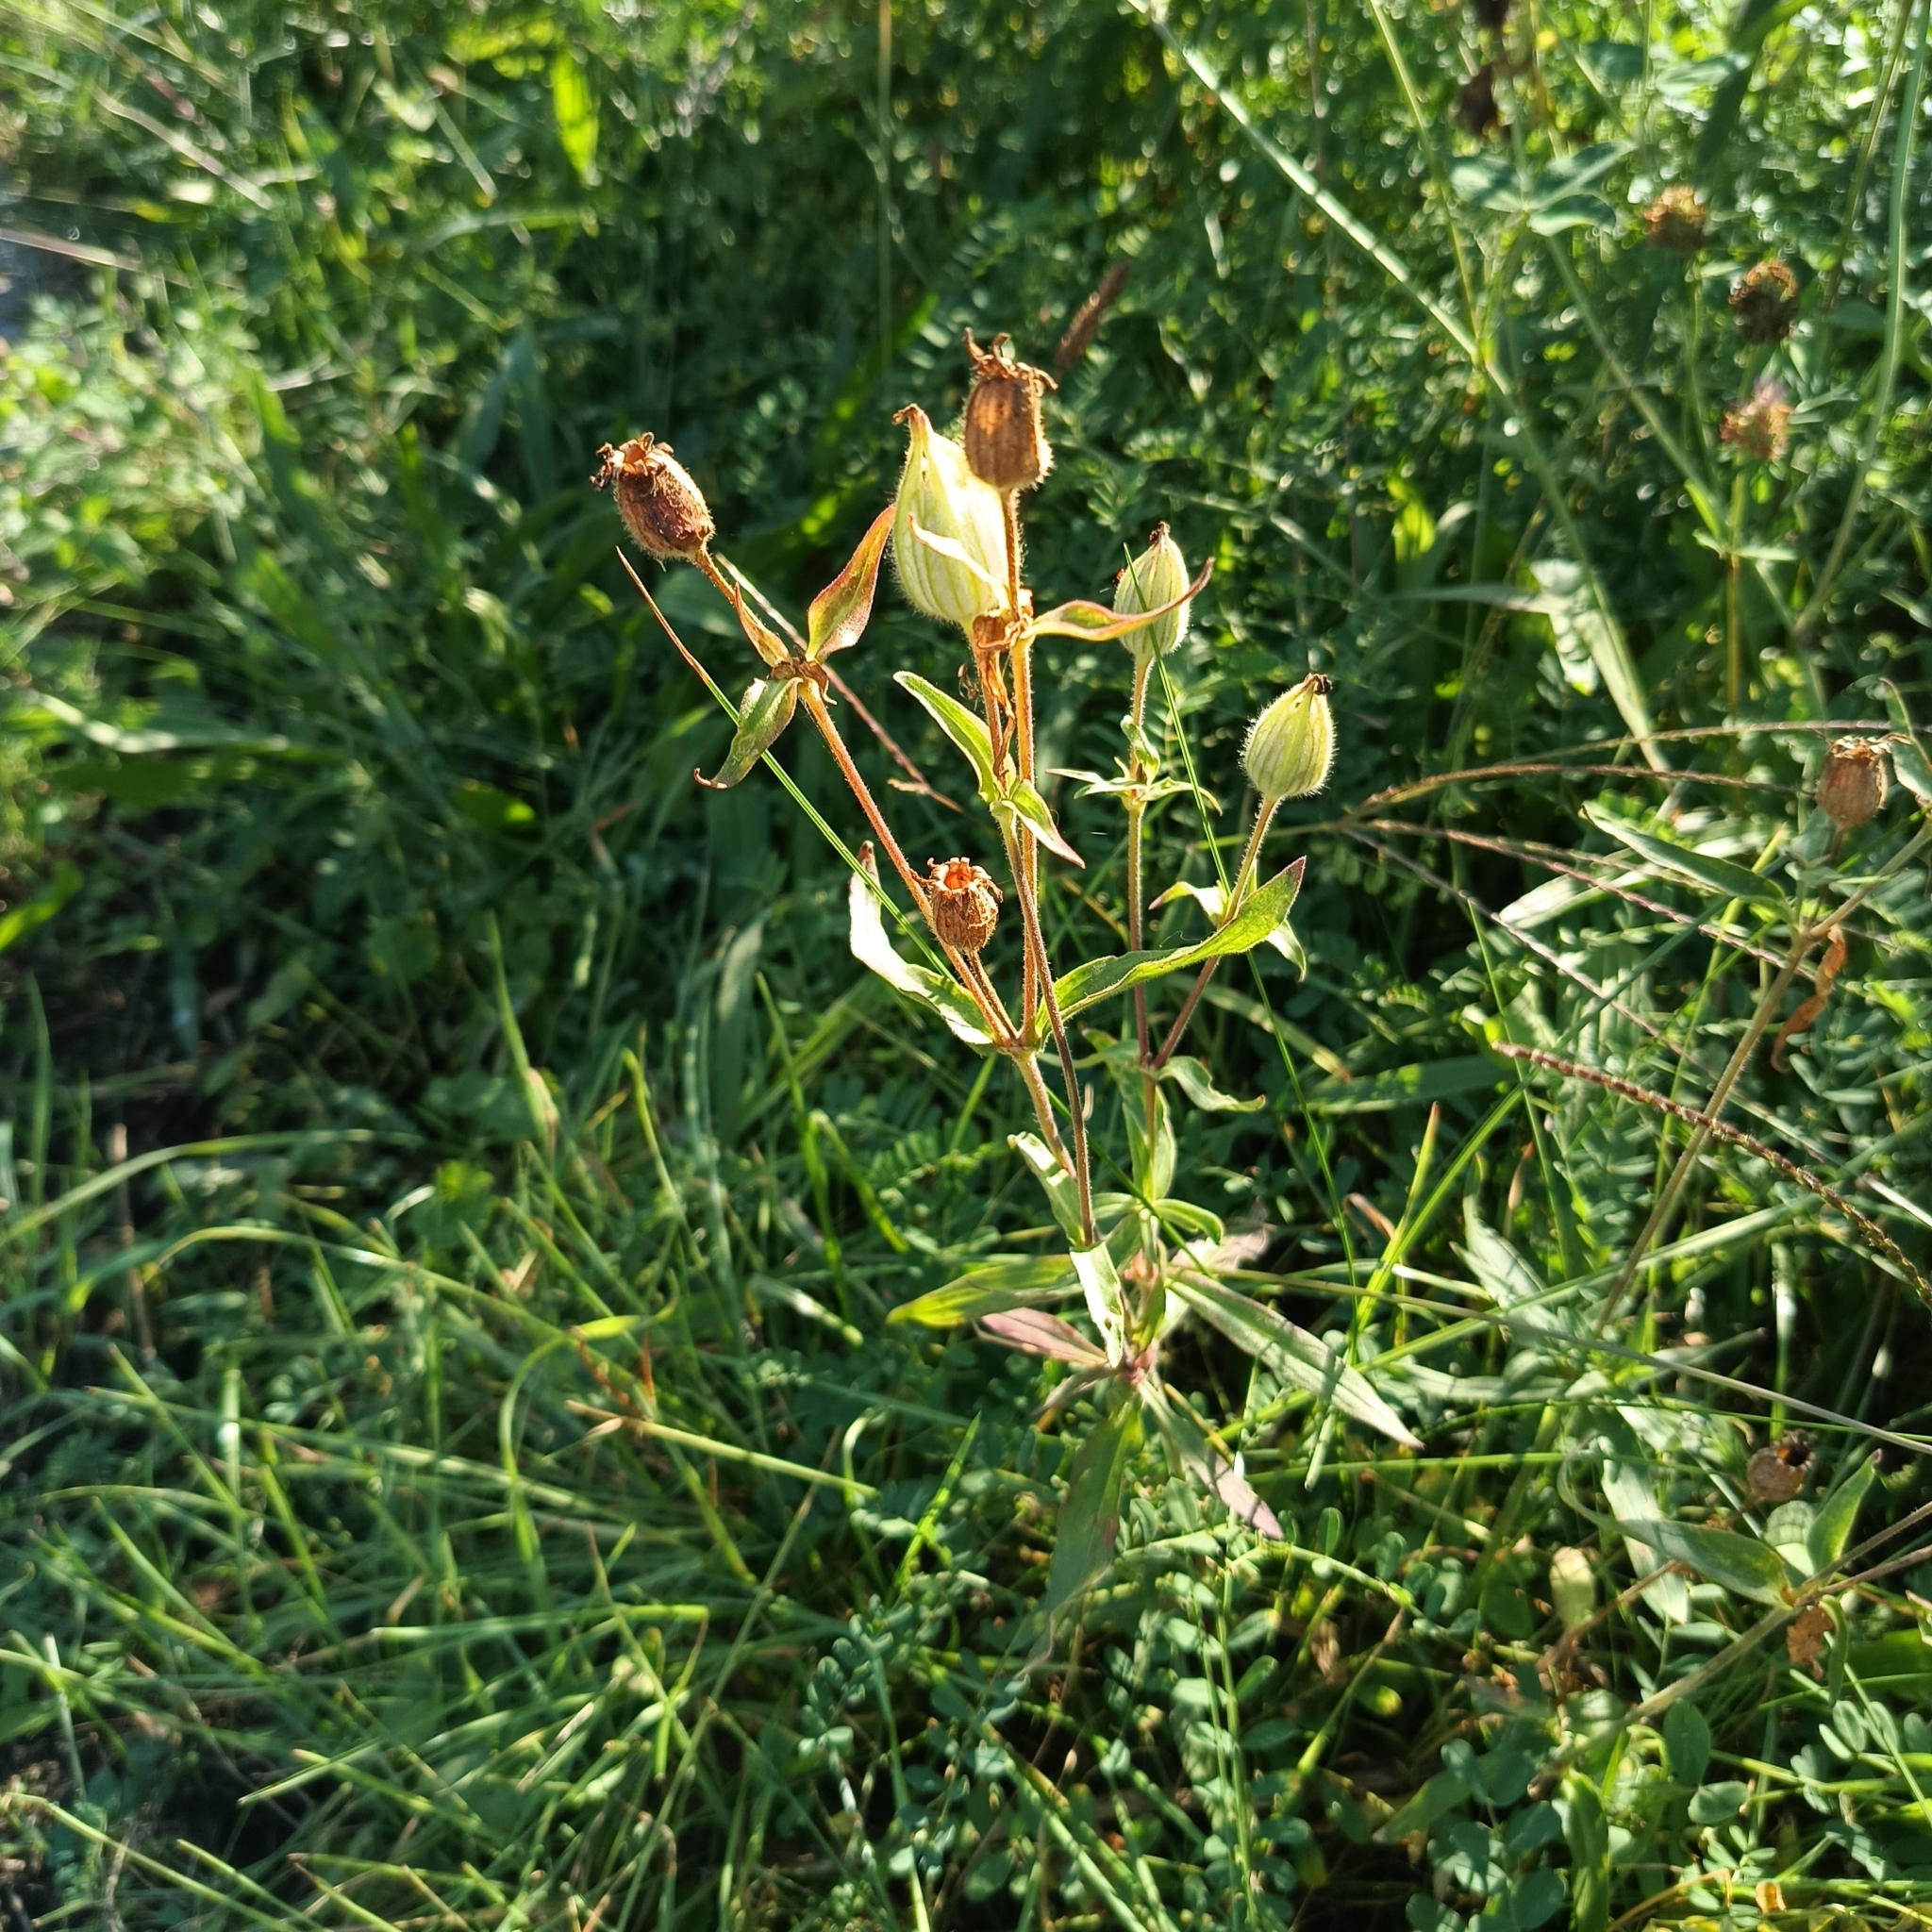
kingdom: Plantae
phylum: Tracheophyta
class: Magnoliopsida
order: Caryophyllales
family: Caryophyllaceae
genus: Silene
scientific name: Silene latifolia
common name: White campion
